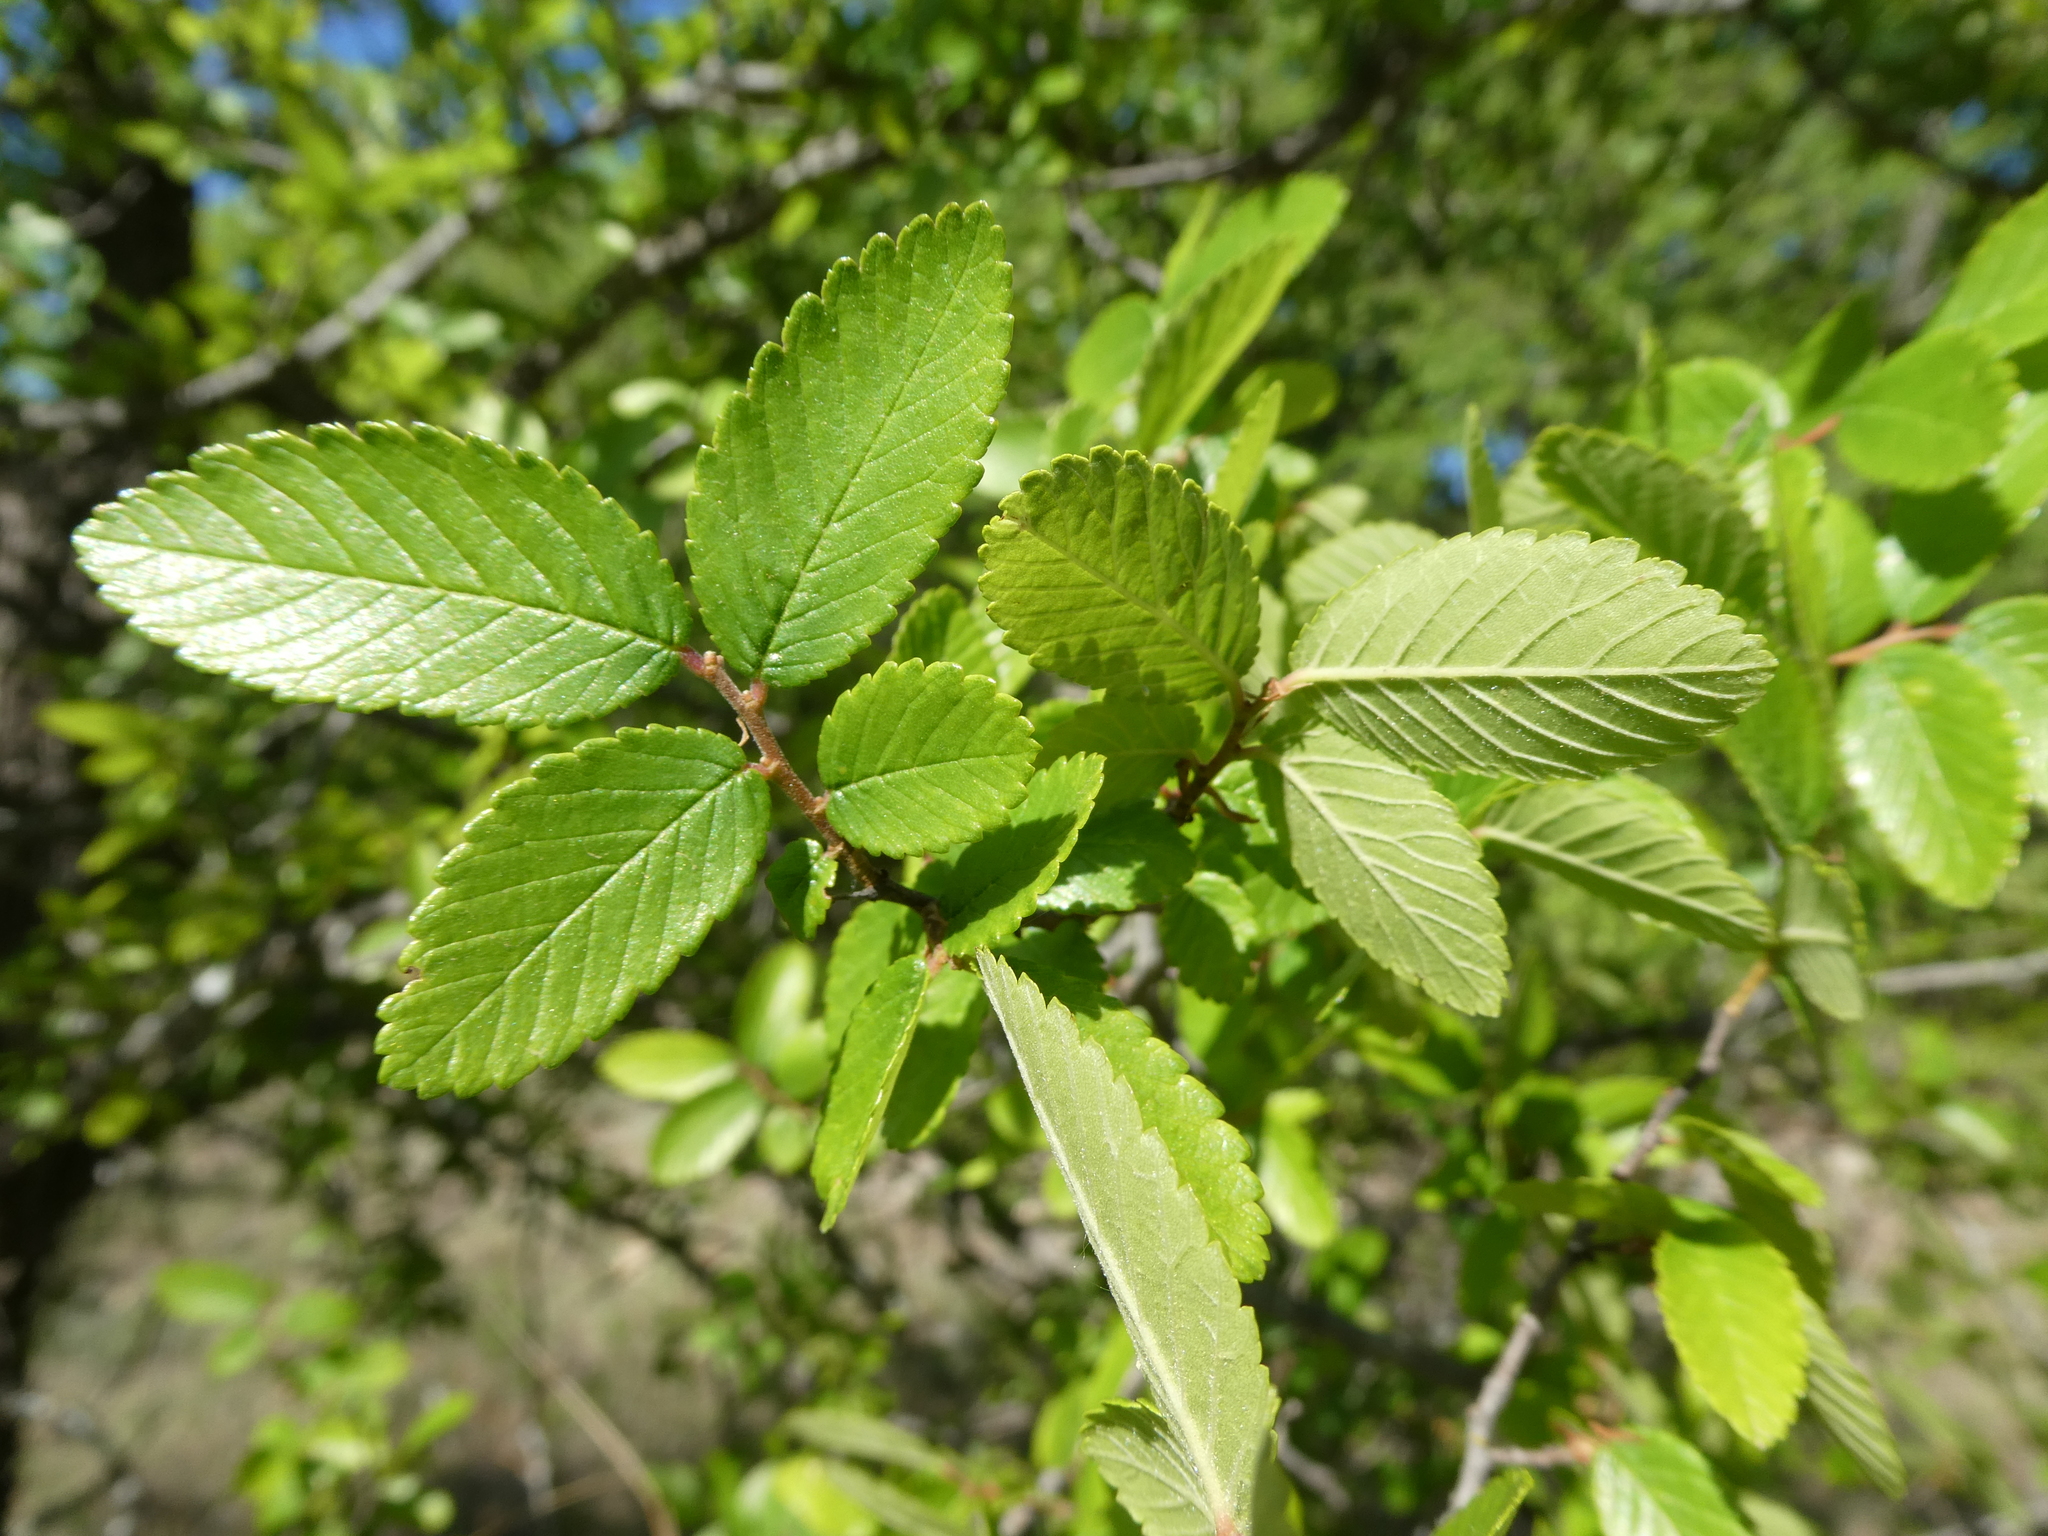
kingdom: Plantae
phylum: Tracheophyta
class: Magnoliopsida
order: Rosales
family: Ulmaceae
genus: Ulmus
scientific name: Ulmus crassifolia
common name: Basket elm
